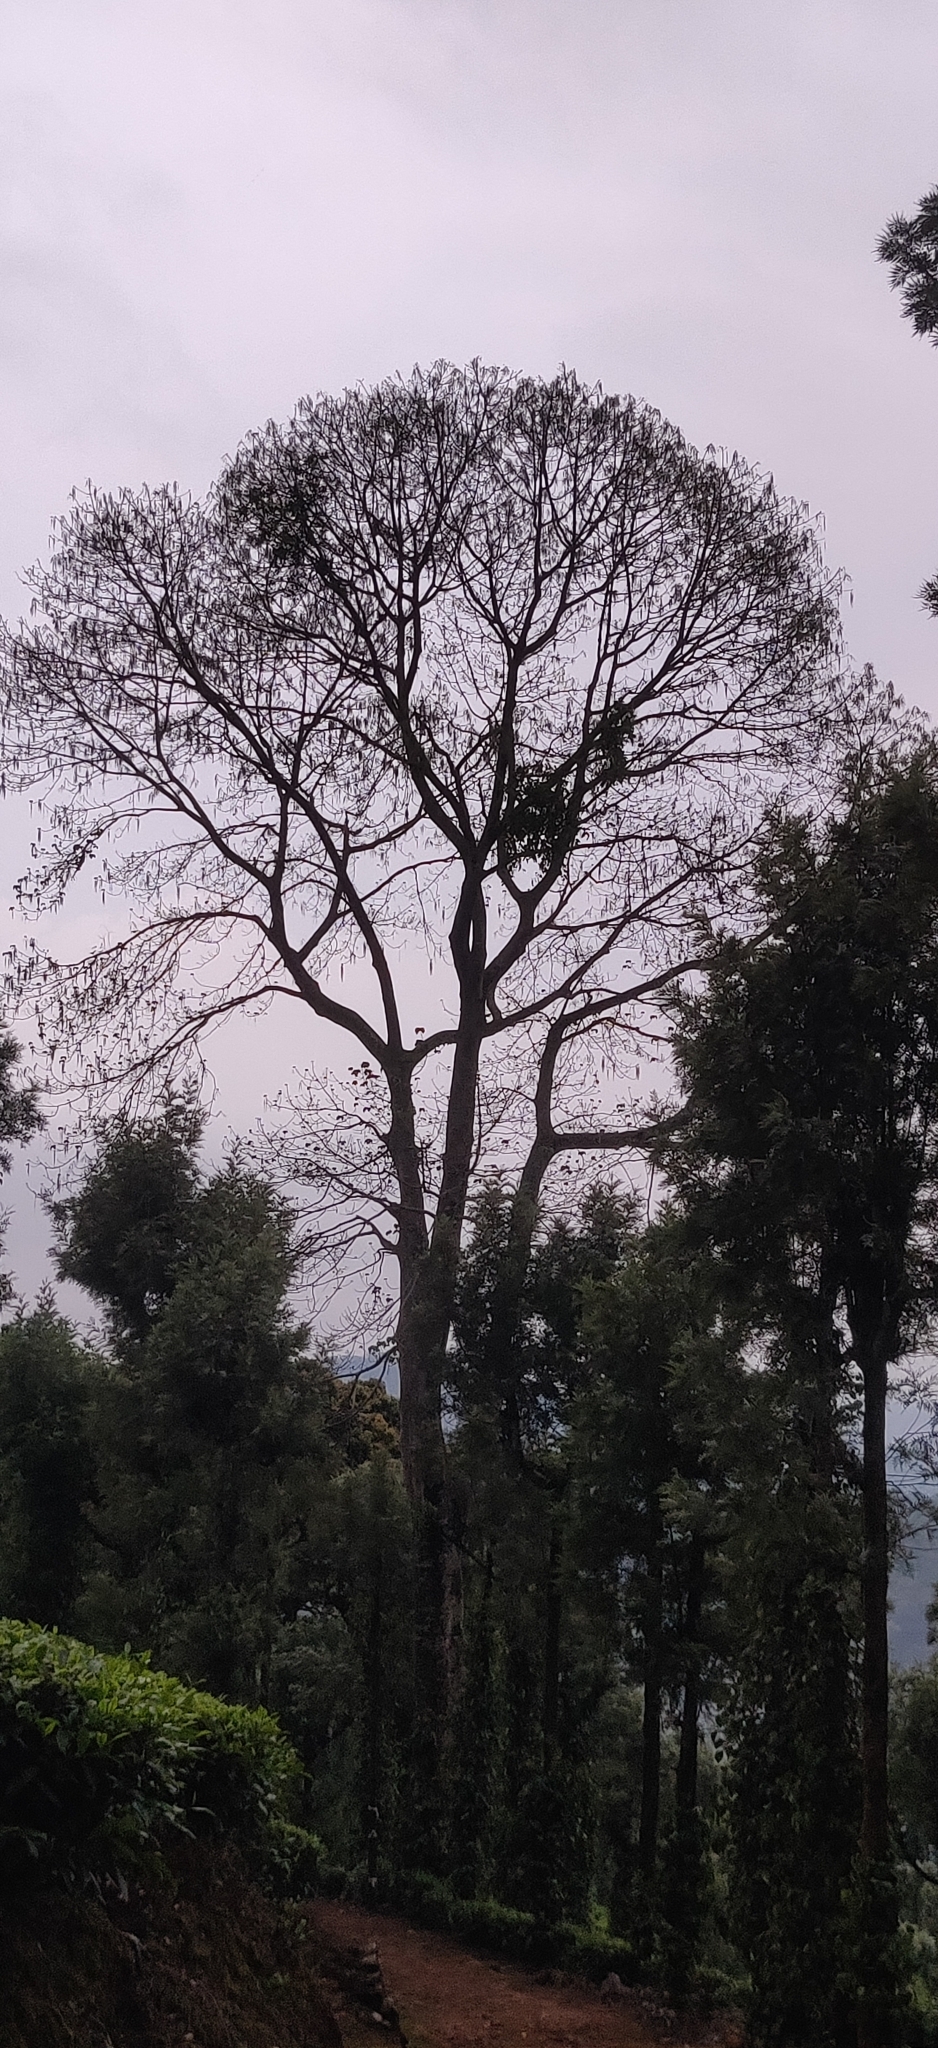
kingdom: Plantae
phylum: Tracheophyta
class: Magnoliopsida
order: Cucurbitales
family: Tetramelaceae
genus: Tetrameles
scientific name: Tetrameles nudiflora
